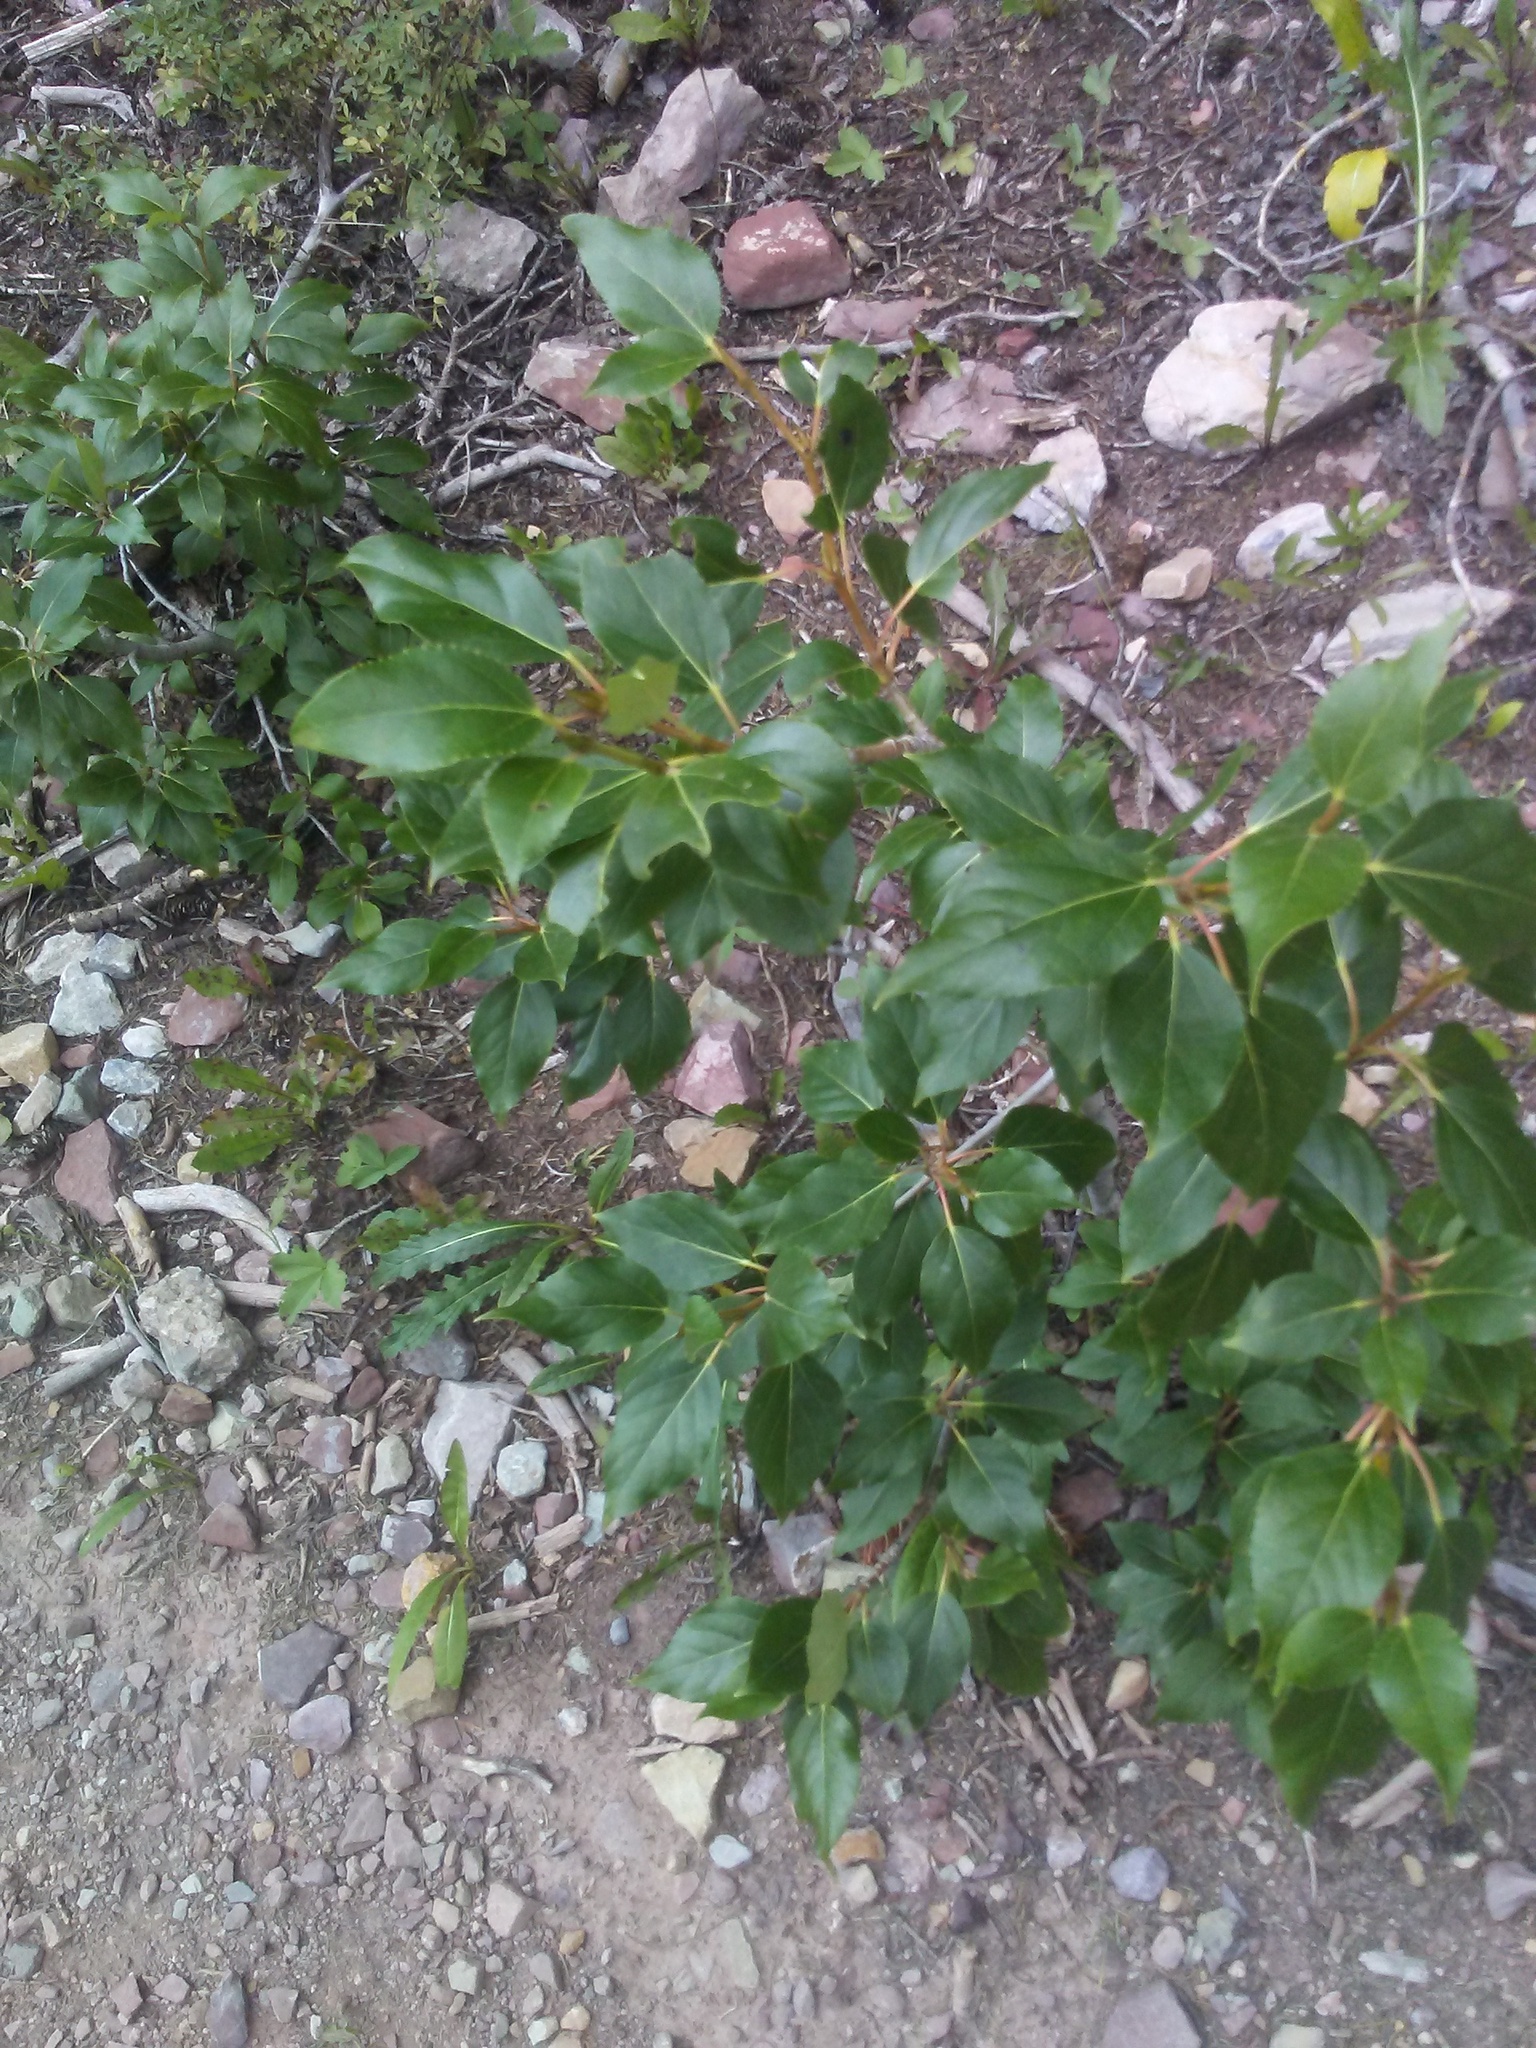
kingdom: Plantae
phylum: Tracheophyta
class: Magnoliopsida
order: Malpighiales
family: Salicaceae
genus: Populus
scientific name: Populus balsamifera
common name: Balsam poplar
